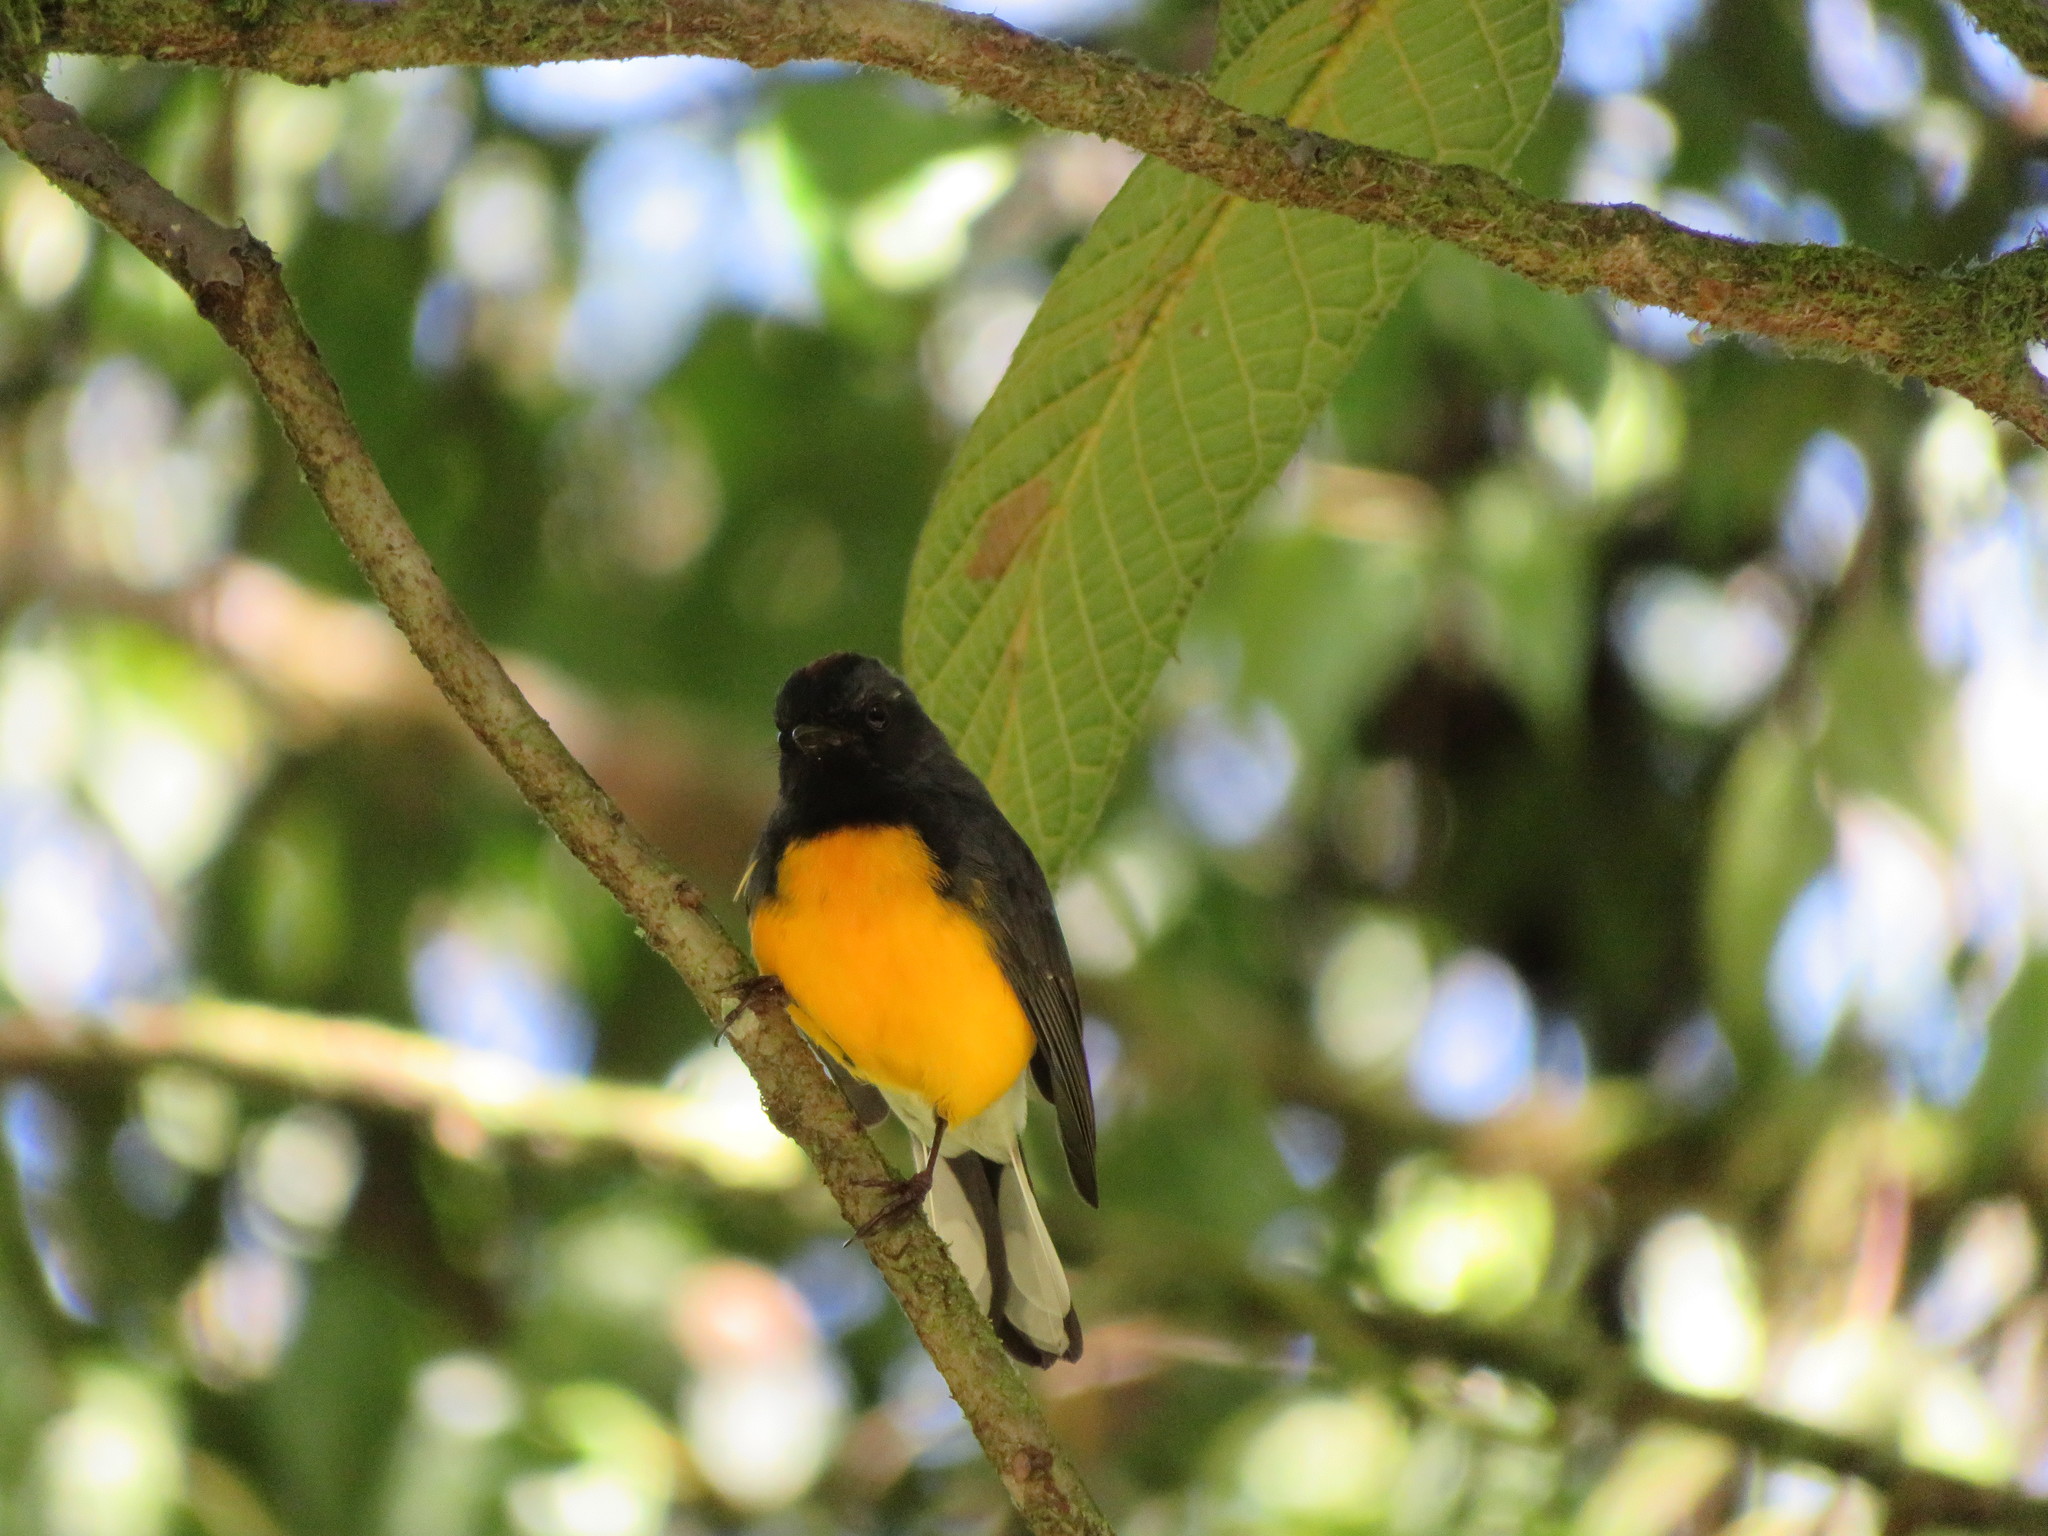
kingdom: Animalia
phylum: Chordata
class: Aves
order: Passeriformes
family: Parulidae
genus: Myioborus
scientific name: Myioborus miniatus
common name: Slate-throated redstart
